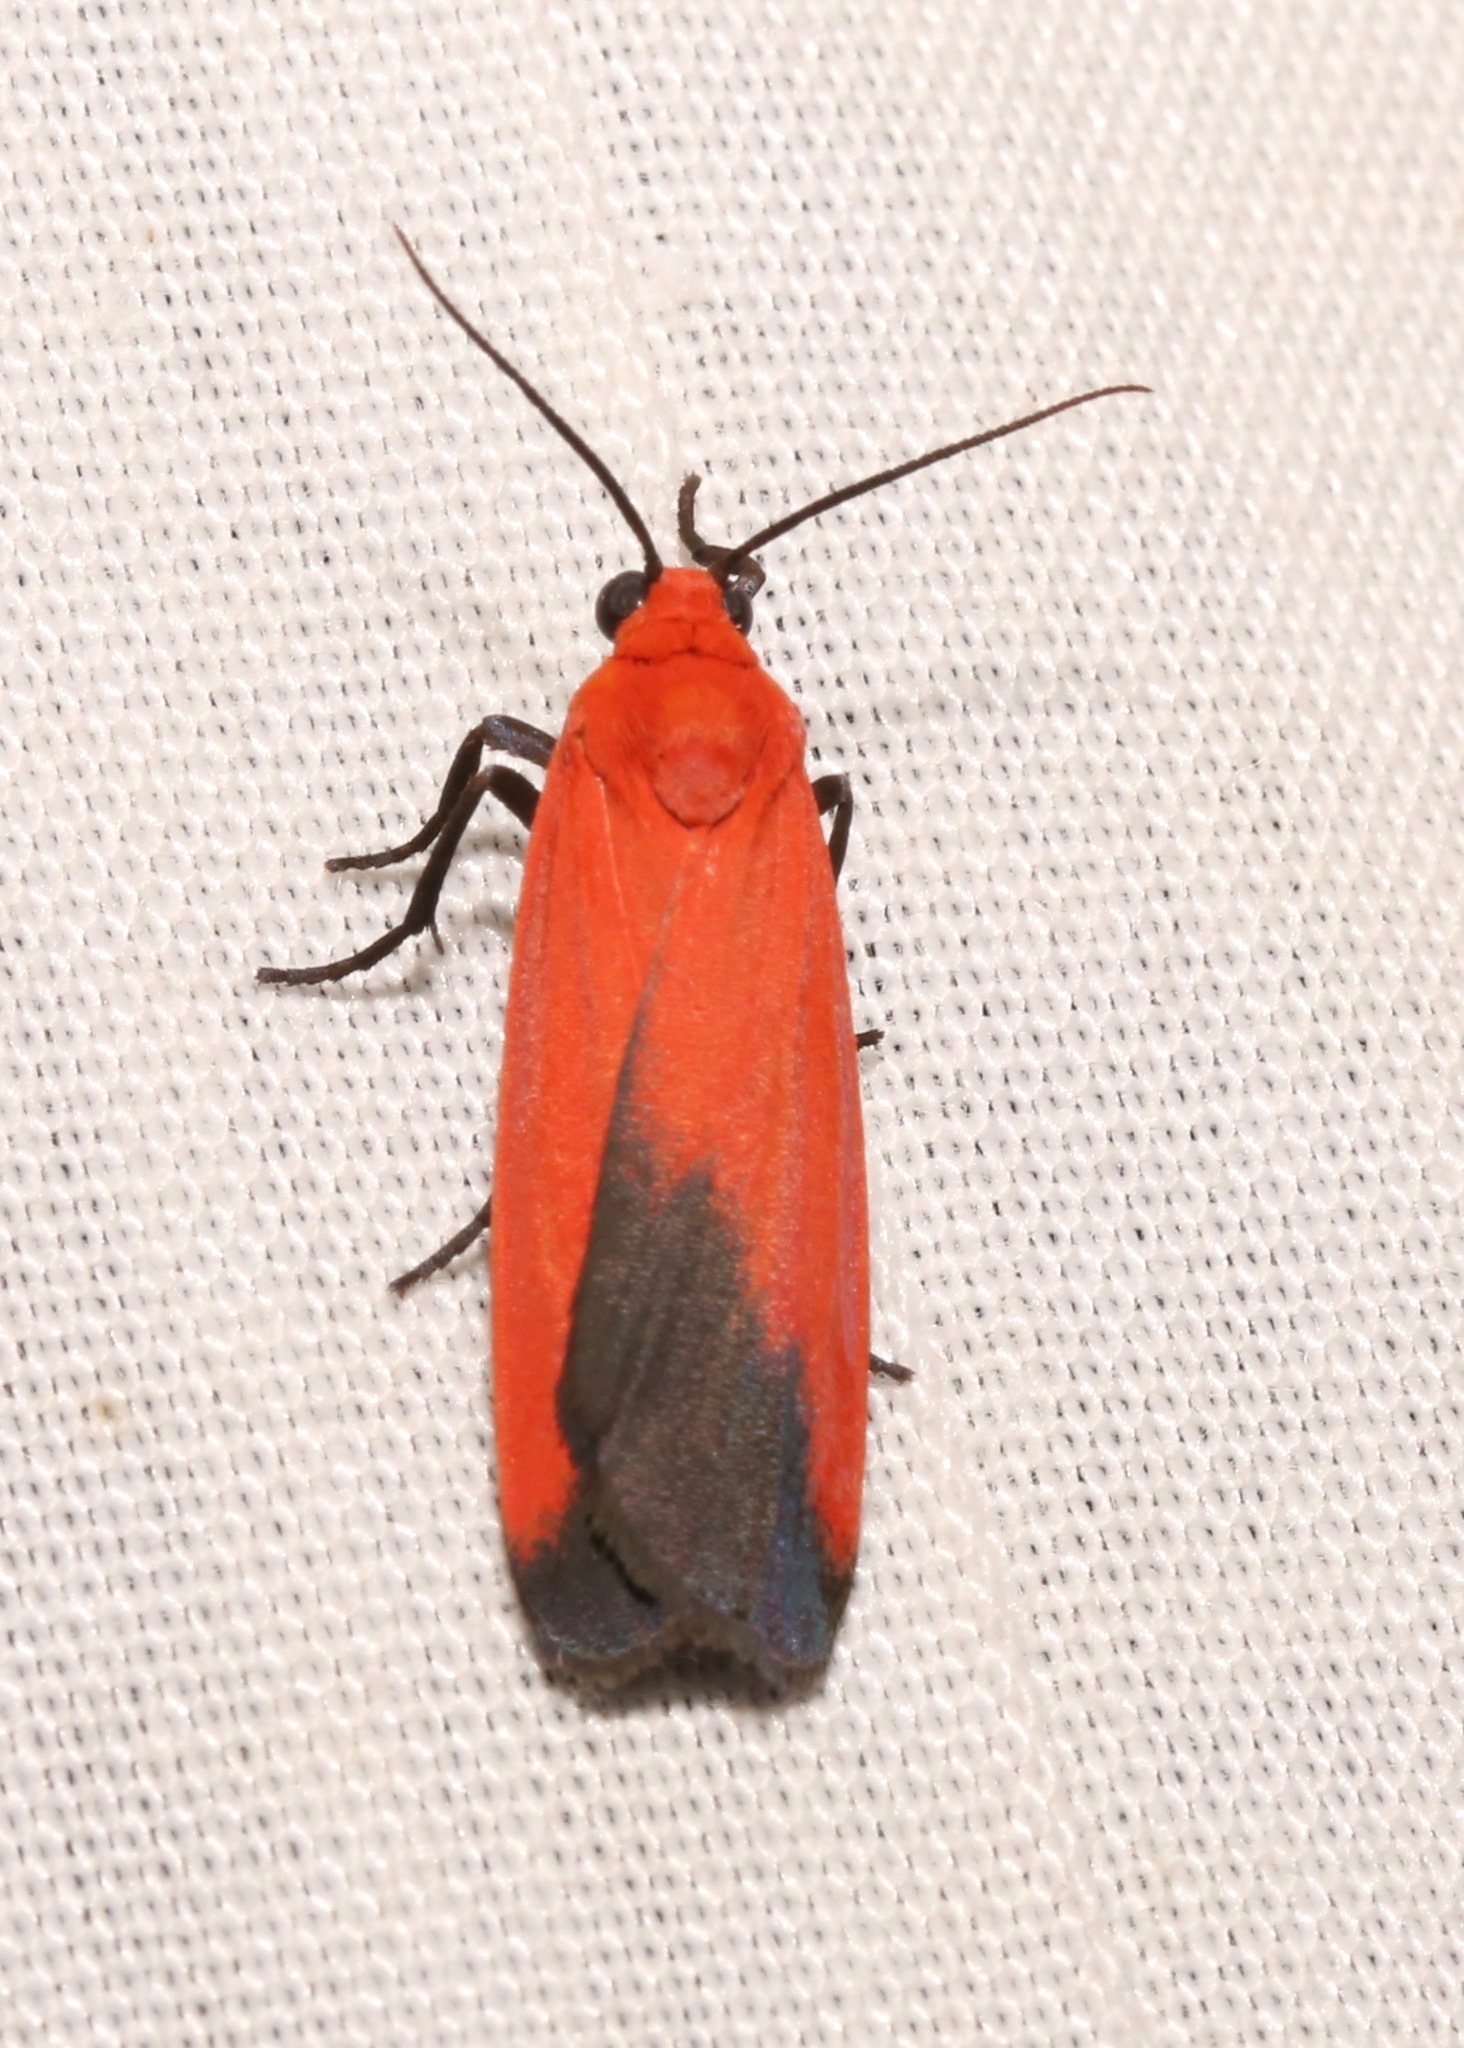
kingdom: Animalia
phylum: Arthropoda
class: Insecta
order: Lepidoptera
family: Erebidae
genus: Ptychoglene
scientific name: Ptychoglene coccinea
